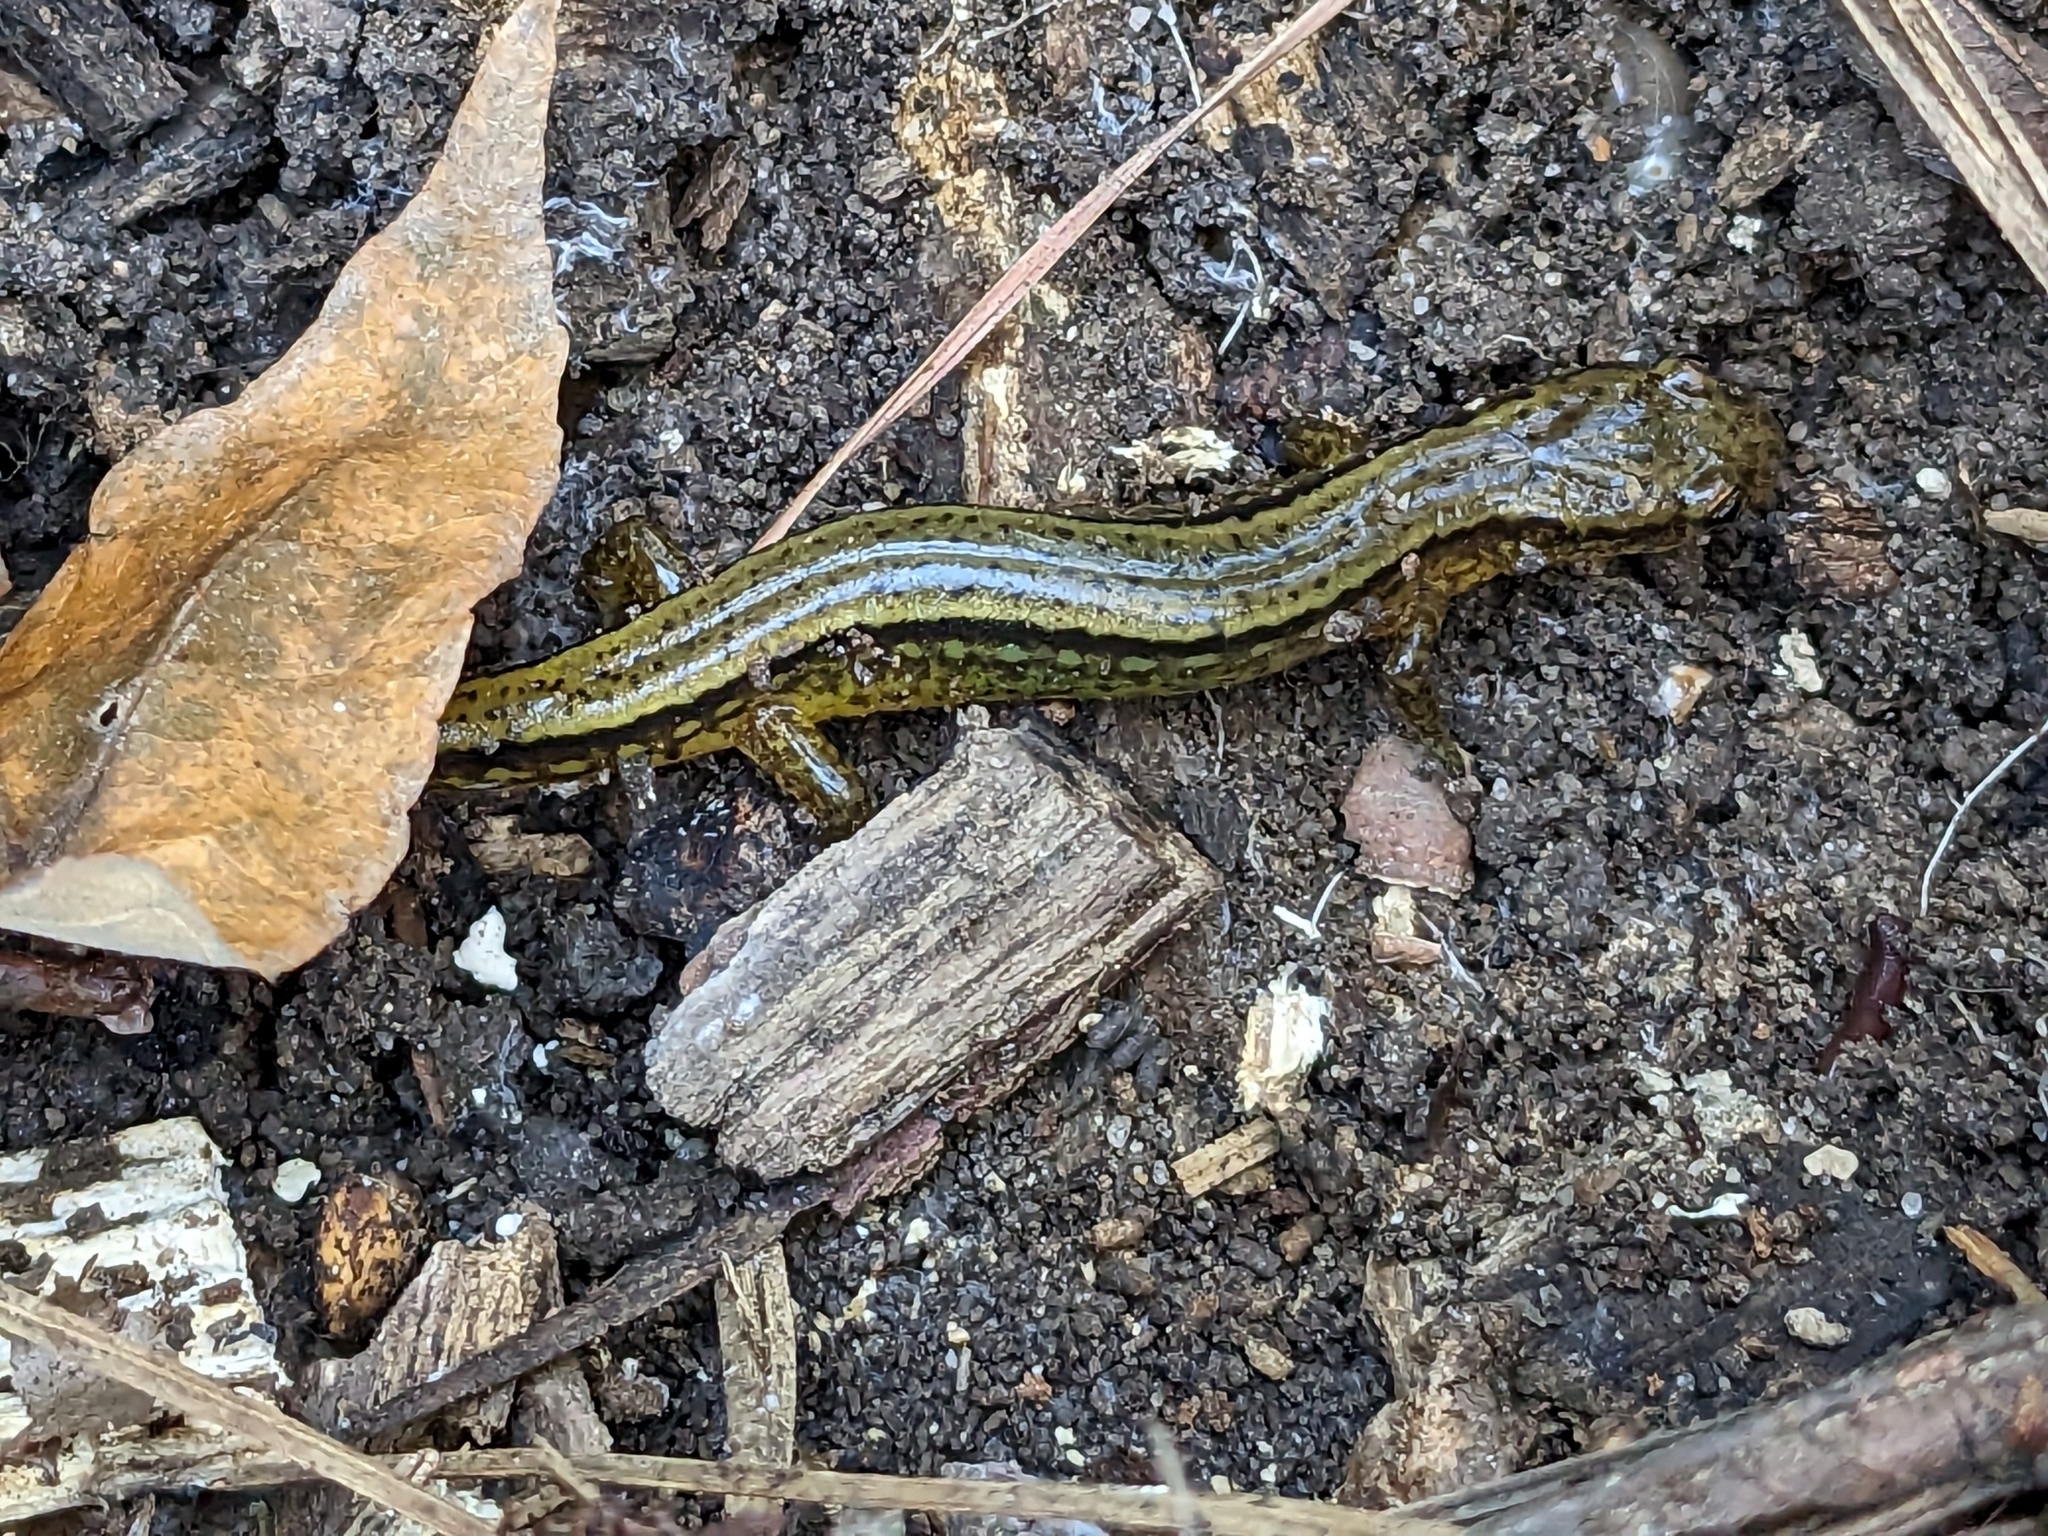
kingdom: Animalia
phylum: Chordata
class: Amphibia
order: Caudata
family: Plethodontidae
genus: Eurycea
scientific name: Eurycea cirrigera
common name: Southern two-lined salamander
